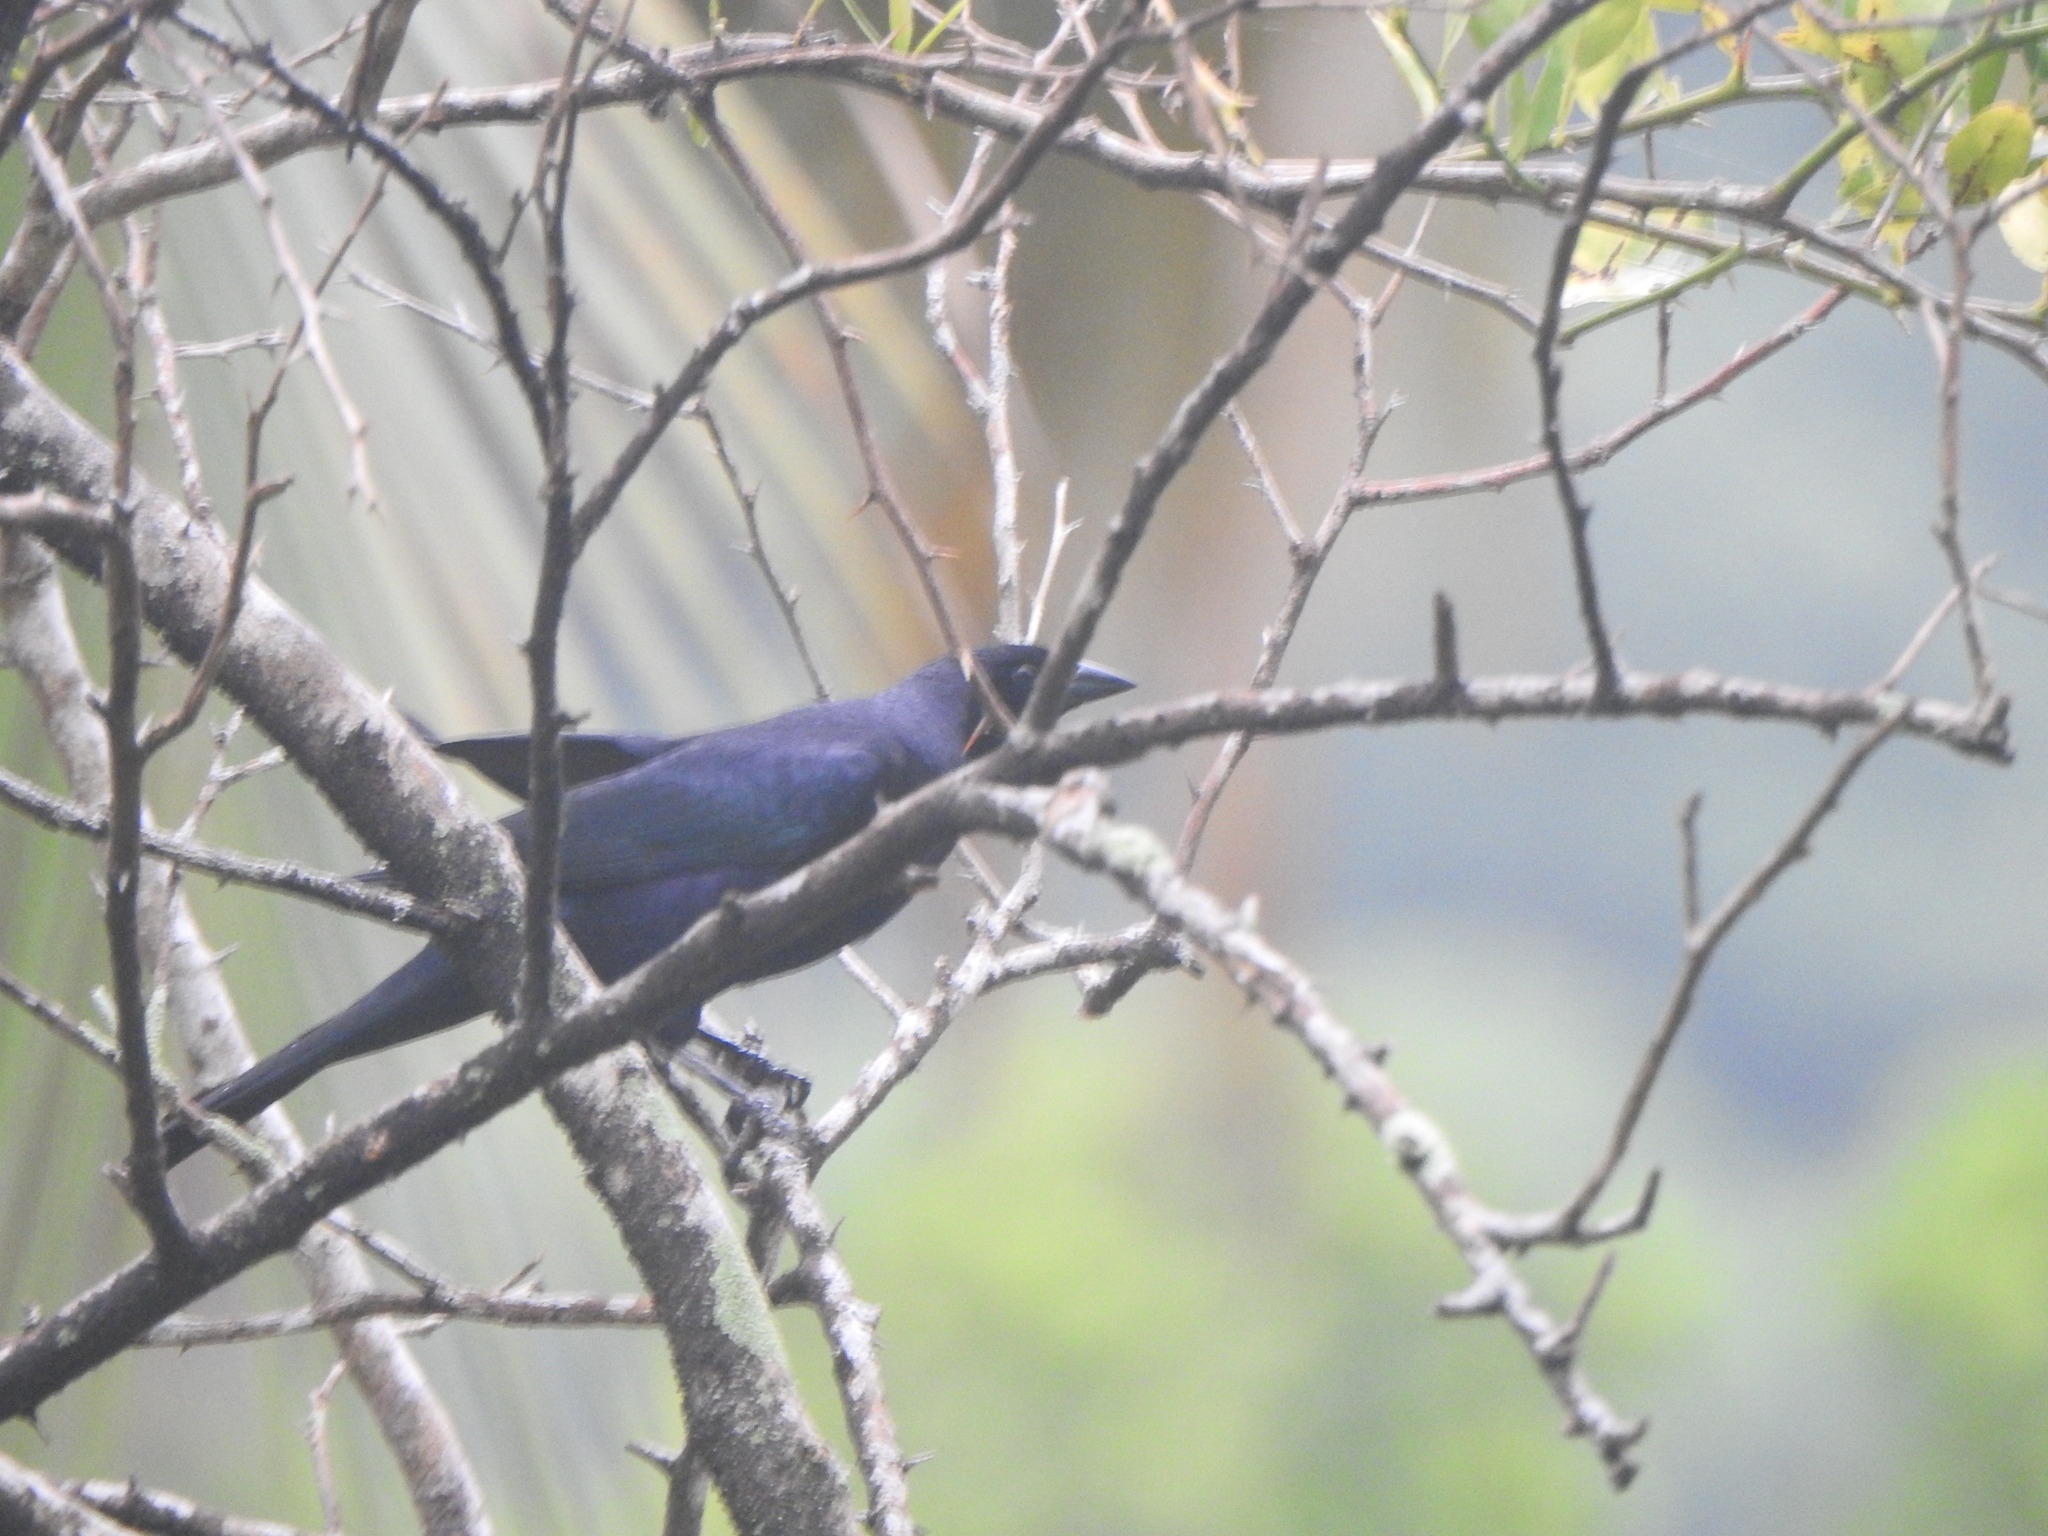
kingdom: Animalia
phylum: Chordata
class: Aves
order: Passeriformes
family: Icteridae
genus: Molothrus
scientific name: Molothrus bonariensis
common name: Shiny cowbird
